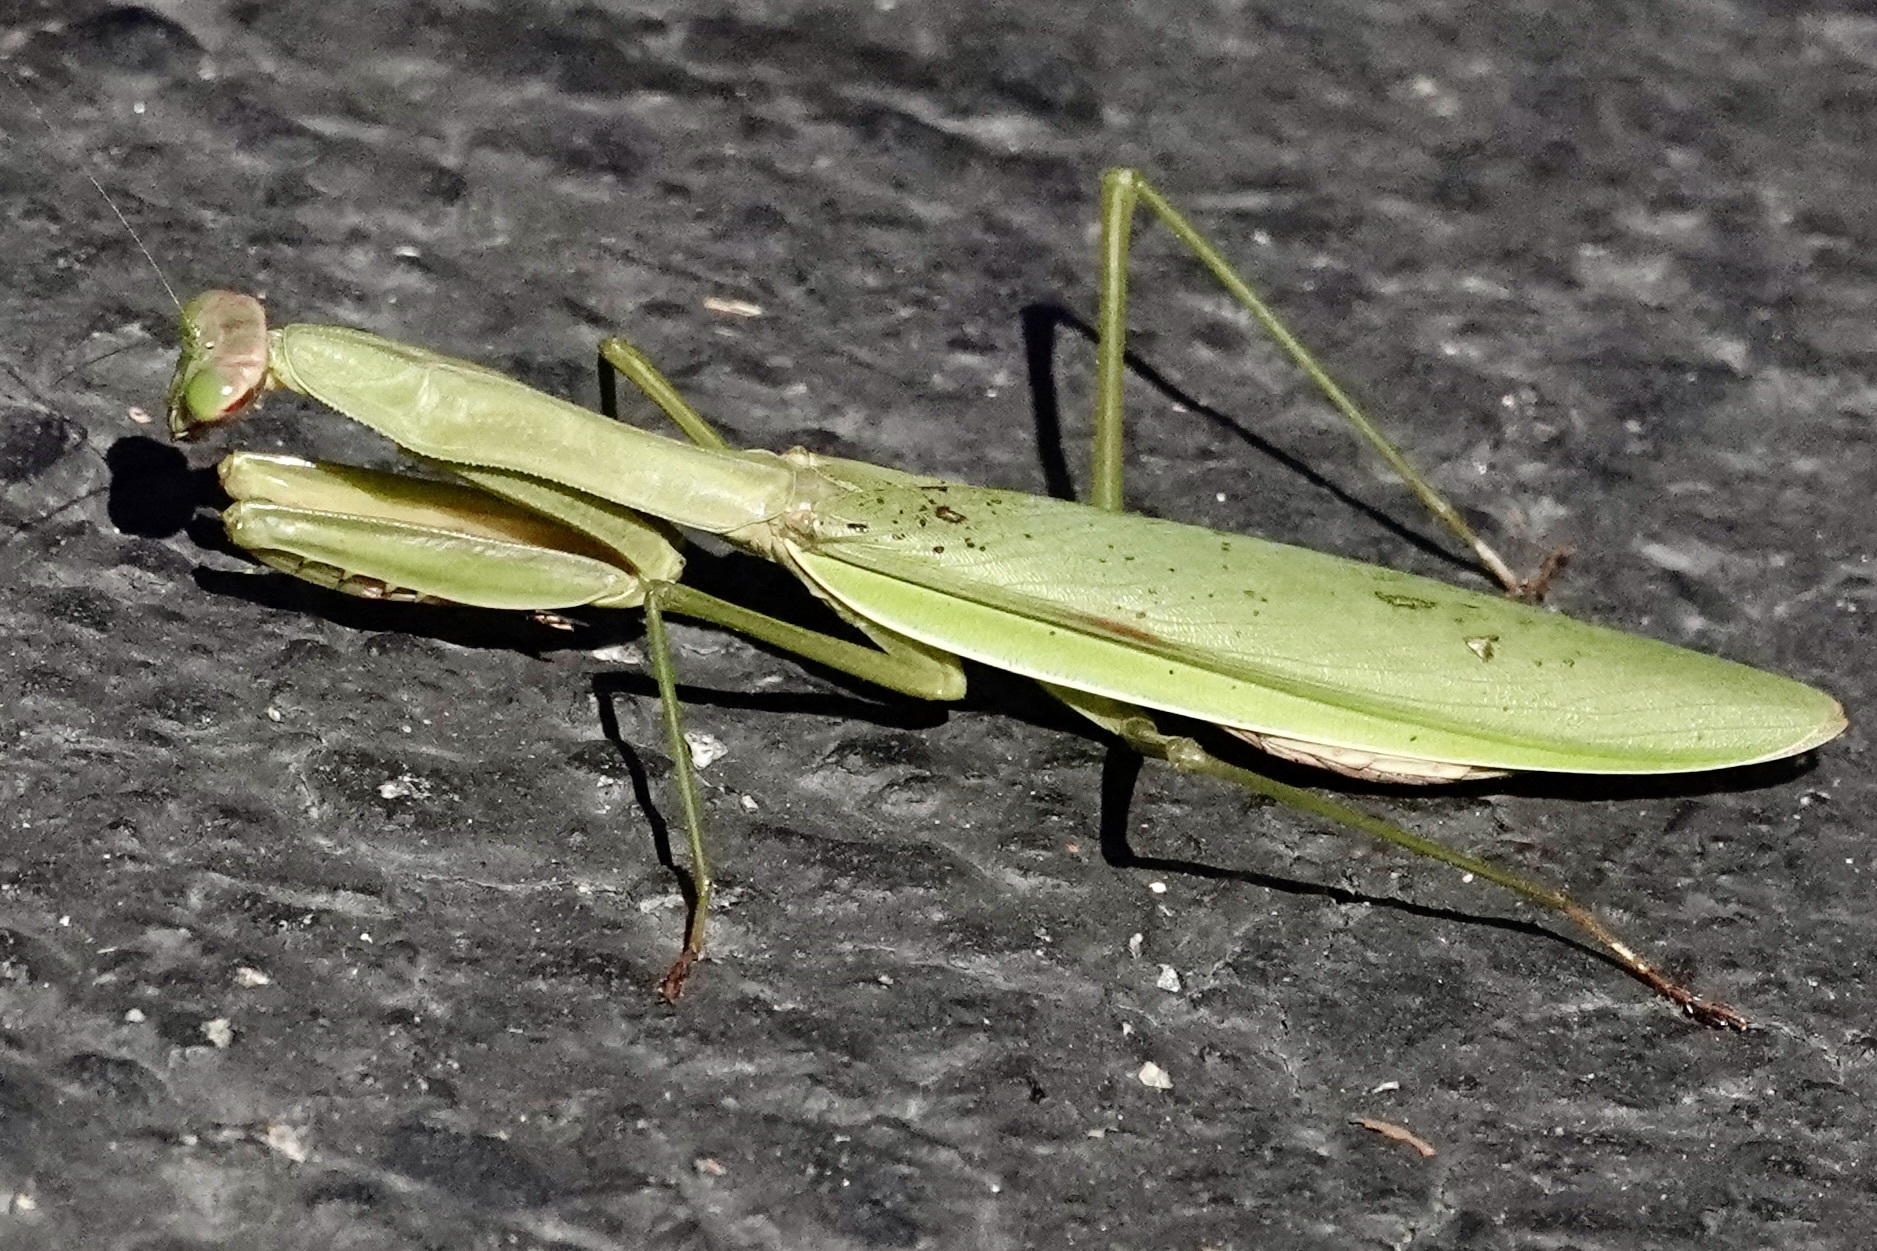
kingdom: Animalia
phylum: Arthropoda
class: Insecta
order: Mantodea
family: Mantidae
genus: Tenodera
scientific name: Tenodera sinensis
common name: Chinese mantis
